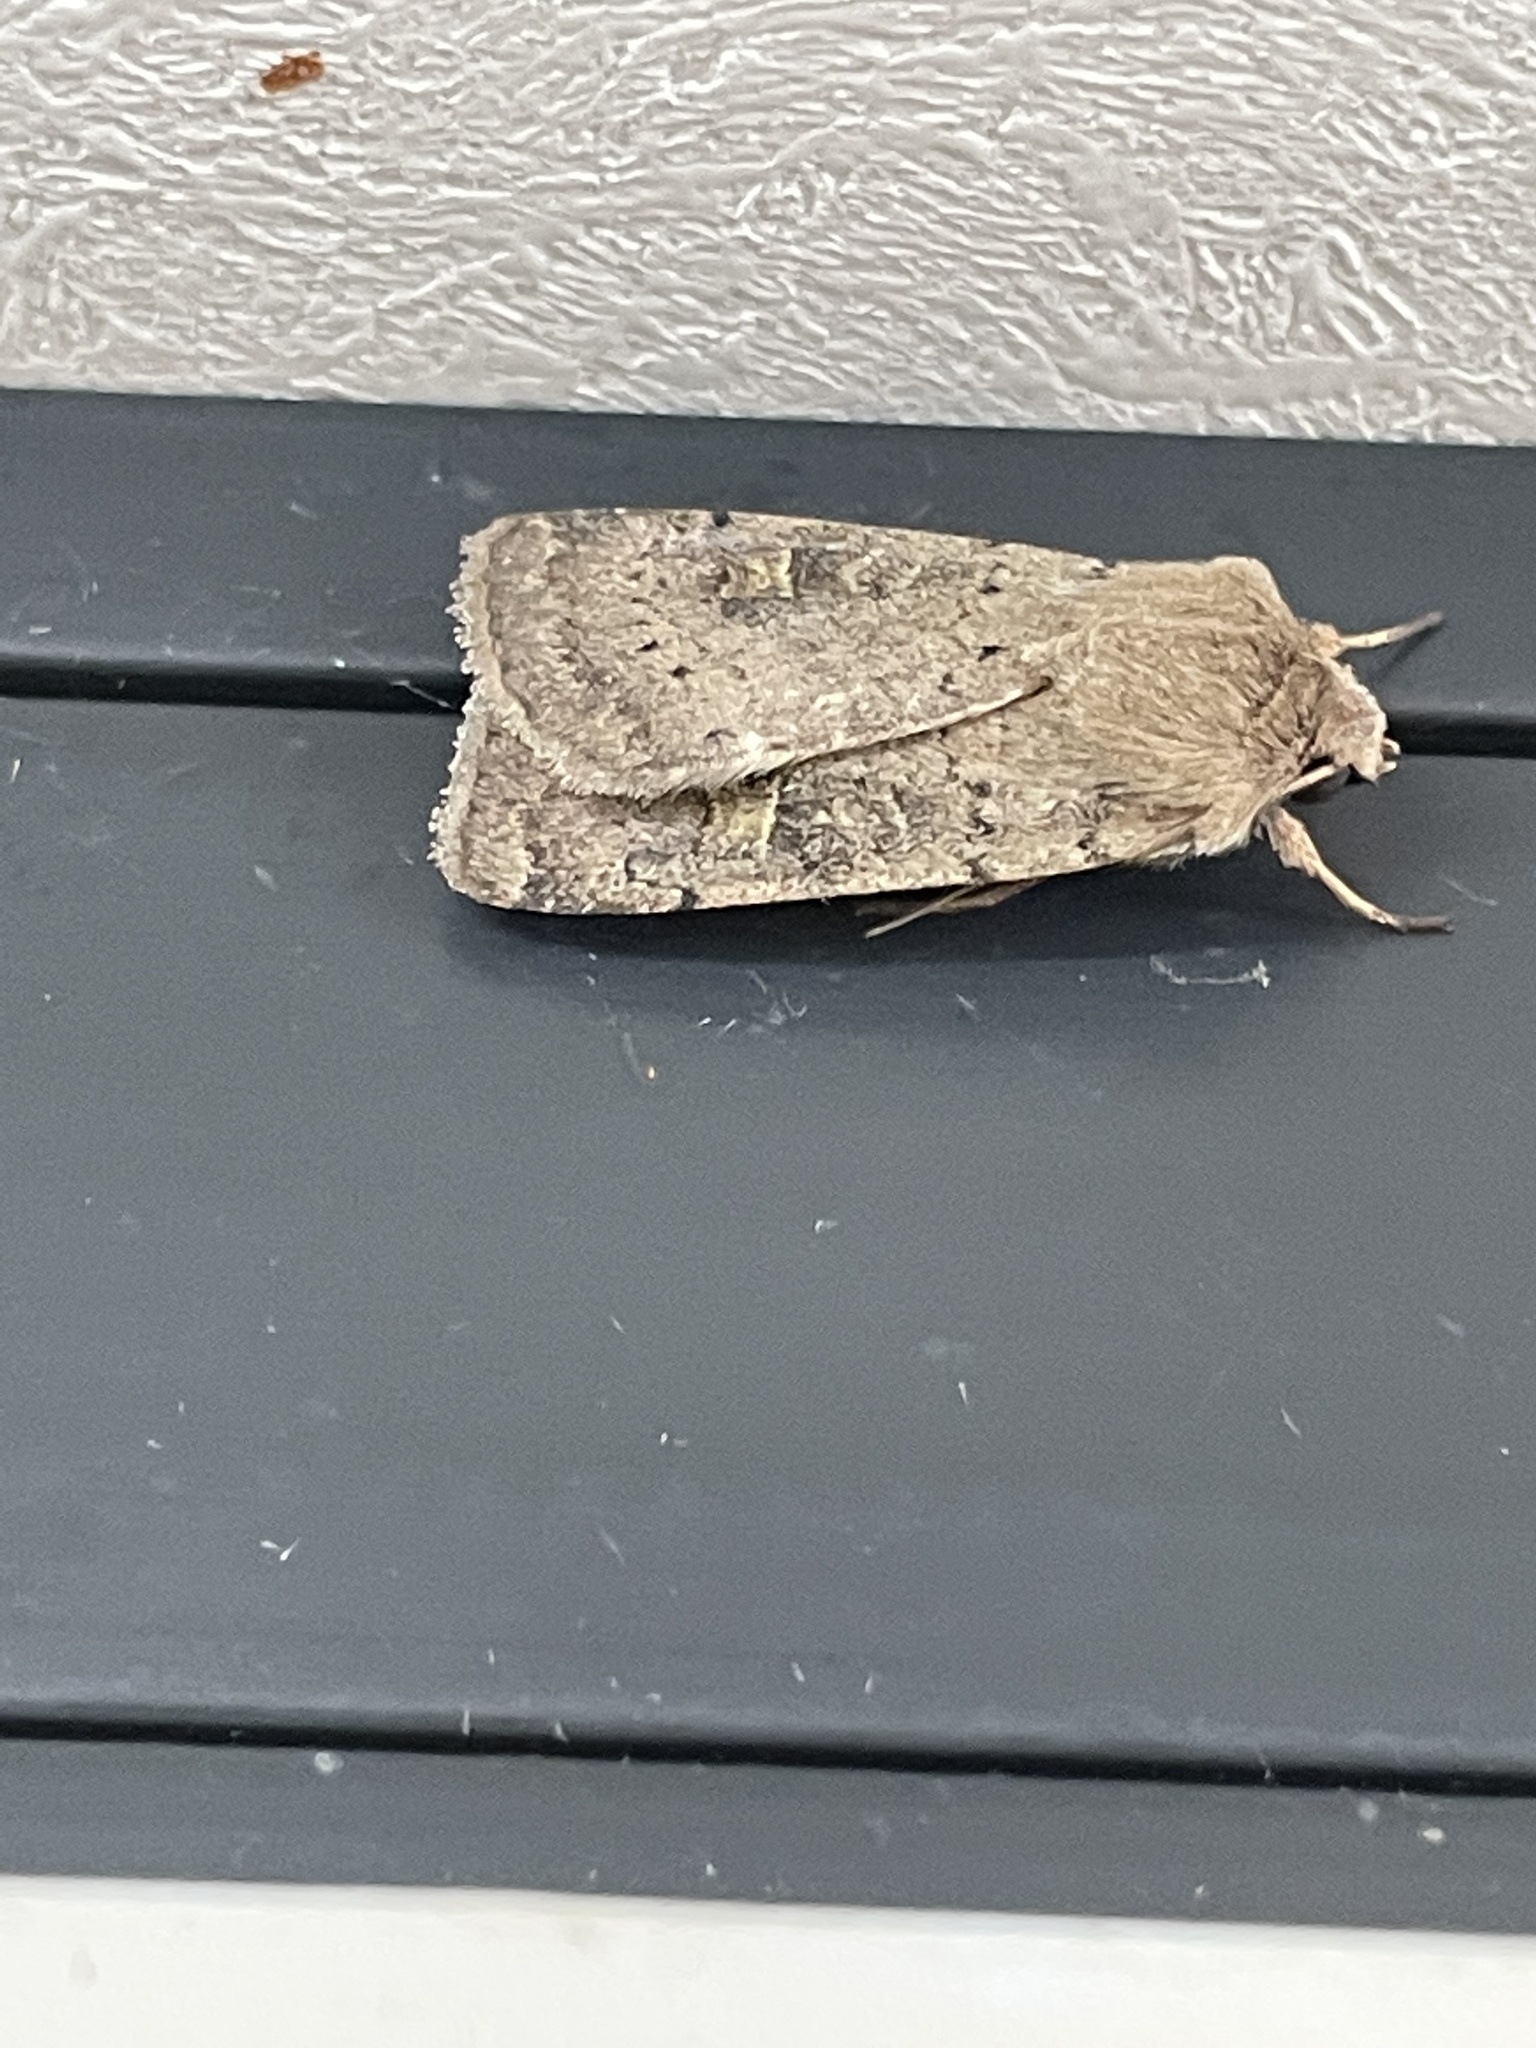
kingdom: Animalia
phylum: Arthropoda
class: Insecta
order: Lepidoptera
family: Noctuidae
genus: Xestia
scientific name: Xestia xanthographa
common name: Square-spot rustic
